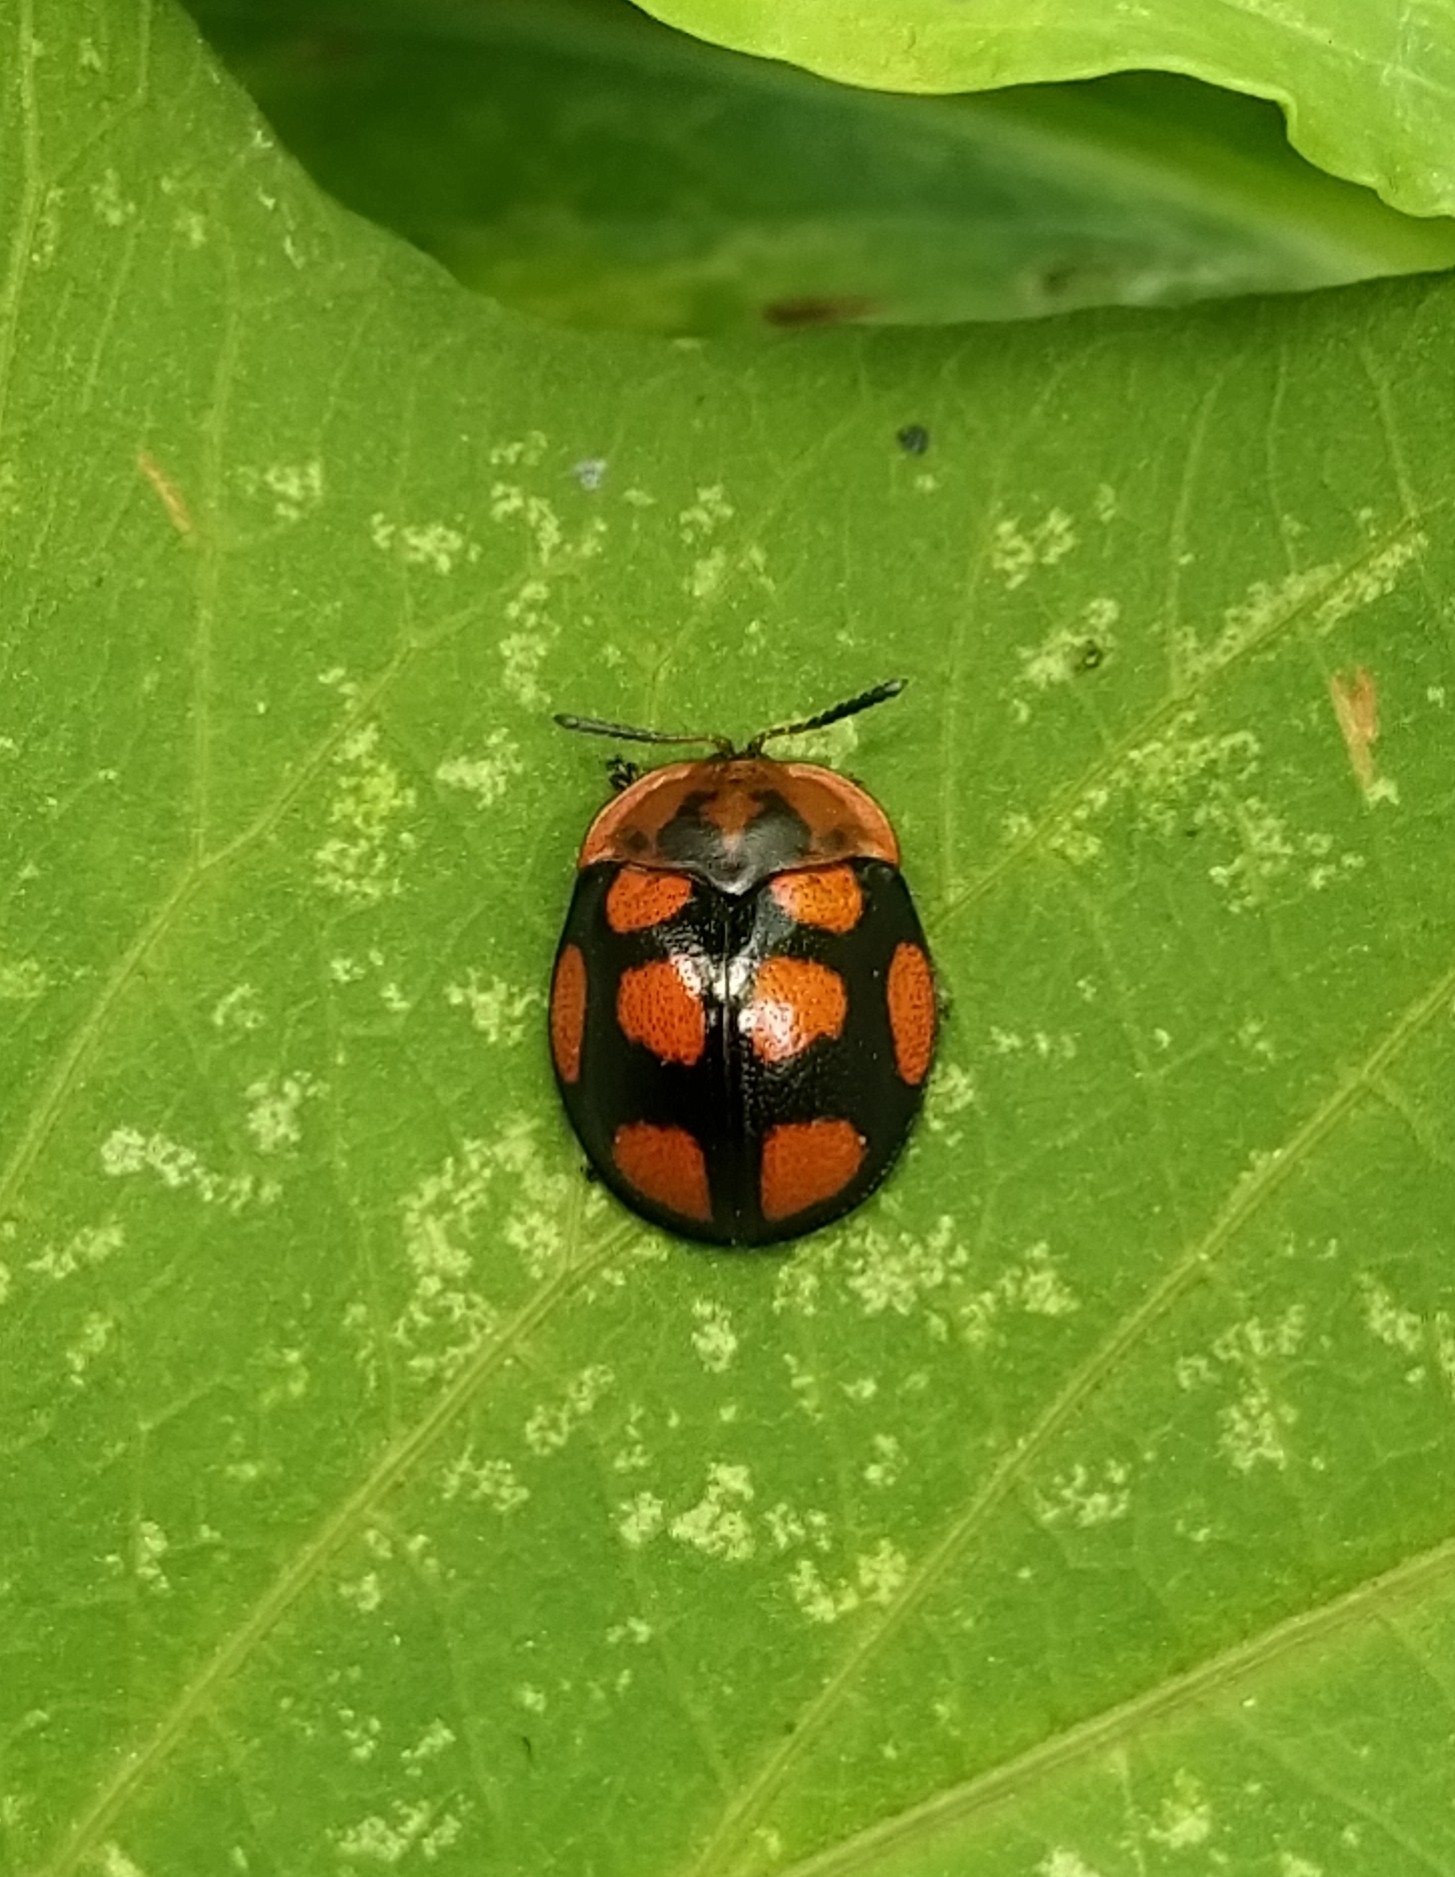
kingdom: Animalia
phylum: Arthropoda
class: Insecta
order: Coleoptera
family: Chrysomelidae
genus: Chelymorpha
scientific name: Chelymorpha areata
